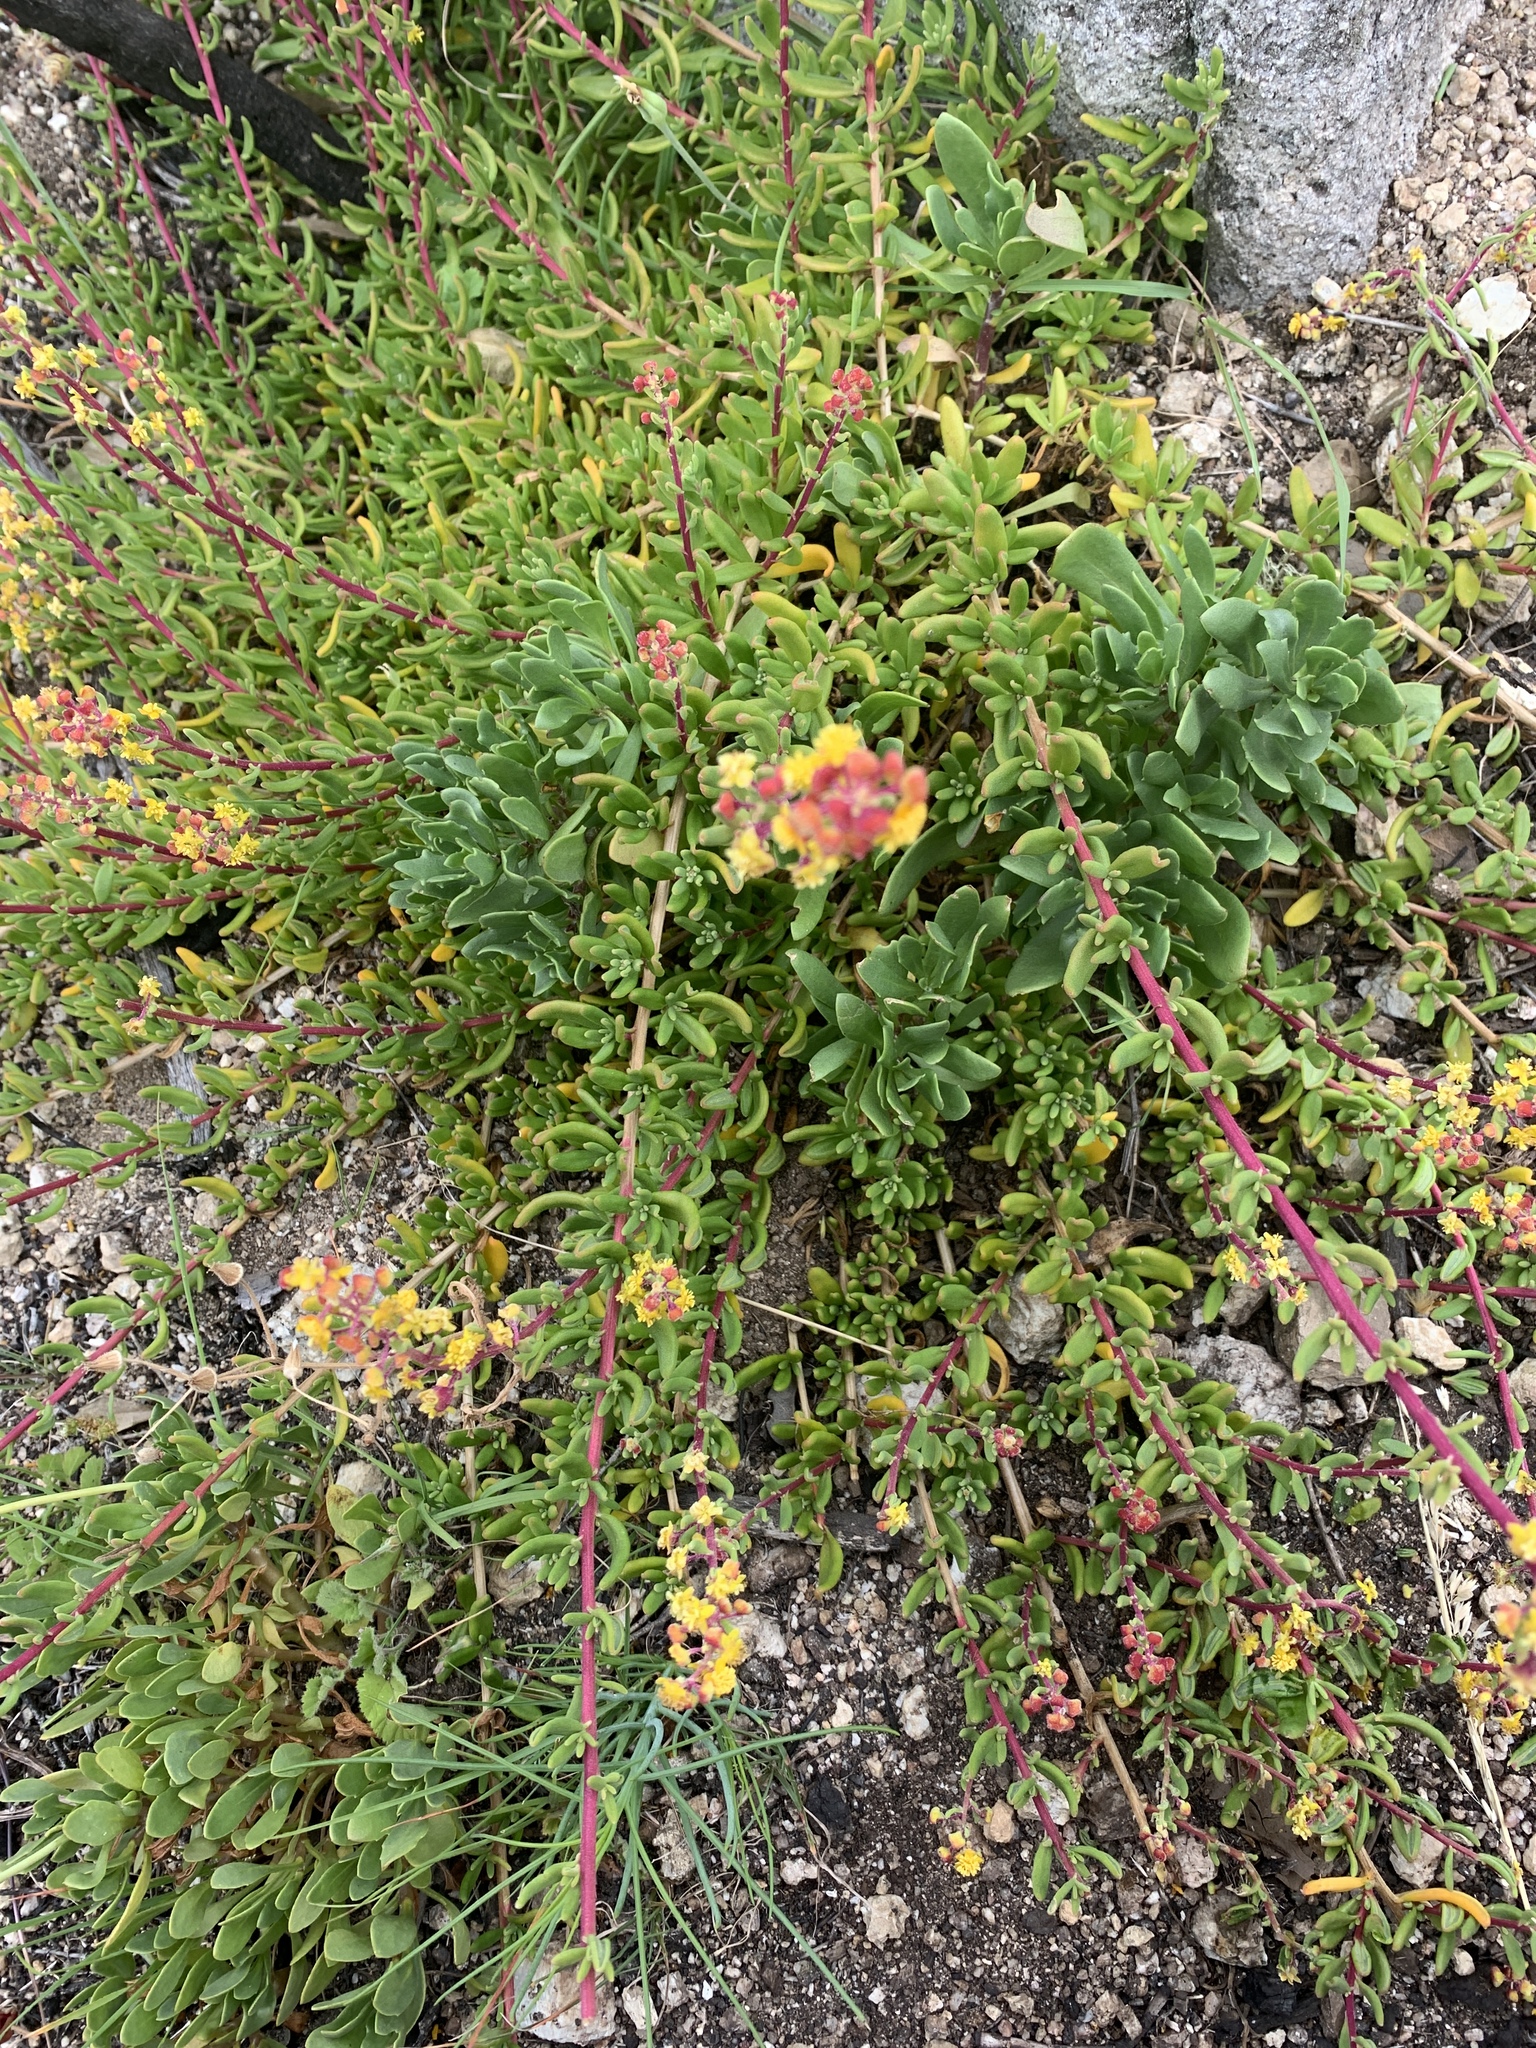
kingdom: Plantae
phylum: Tracheophyta
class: Magnoliopsida
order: Caryophyllales
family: Aizoaceae
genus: Tetragonia
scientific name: Tetragonia fruticosa
